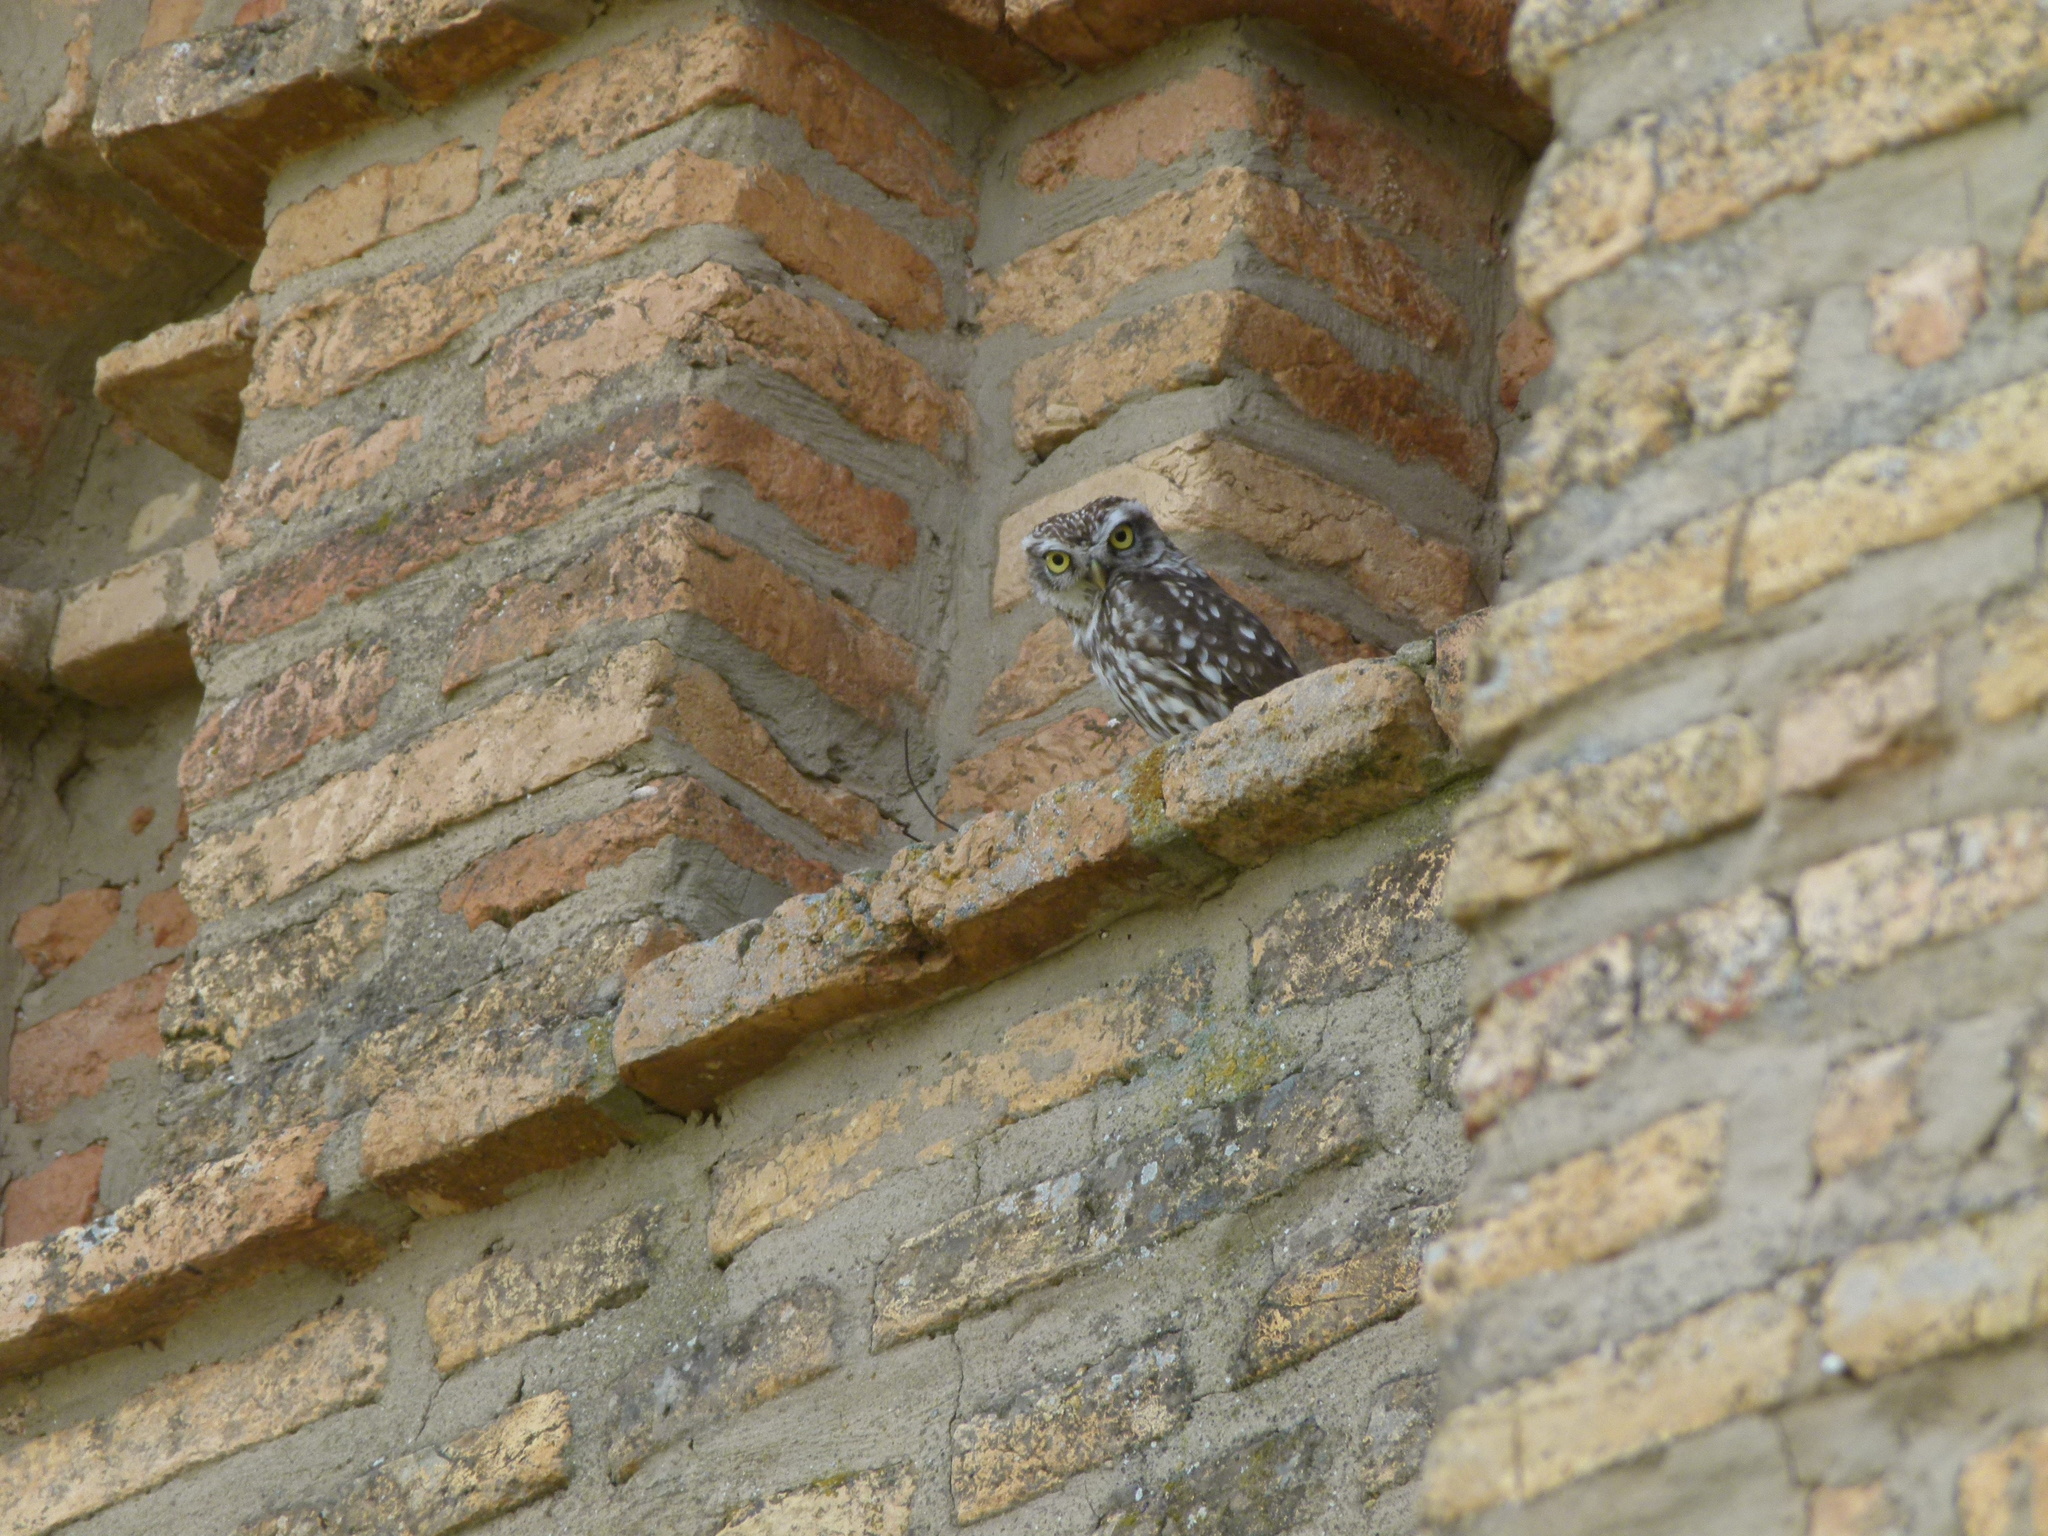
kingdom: Animalia
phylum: Chordata
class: Aves
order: Strigiformes
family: Strigidae
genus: Athene
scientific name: Athene noctua
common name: Little owl
